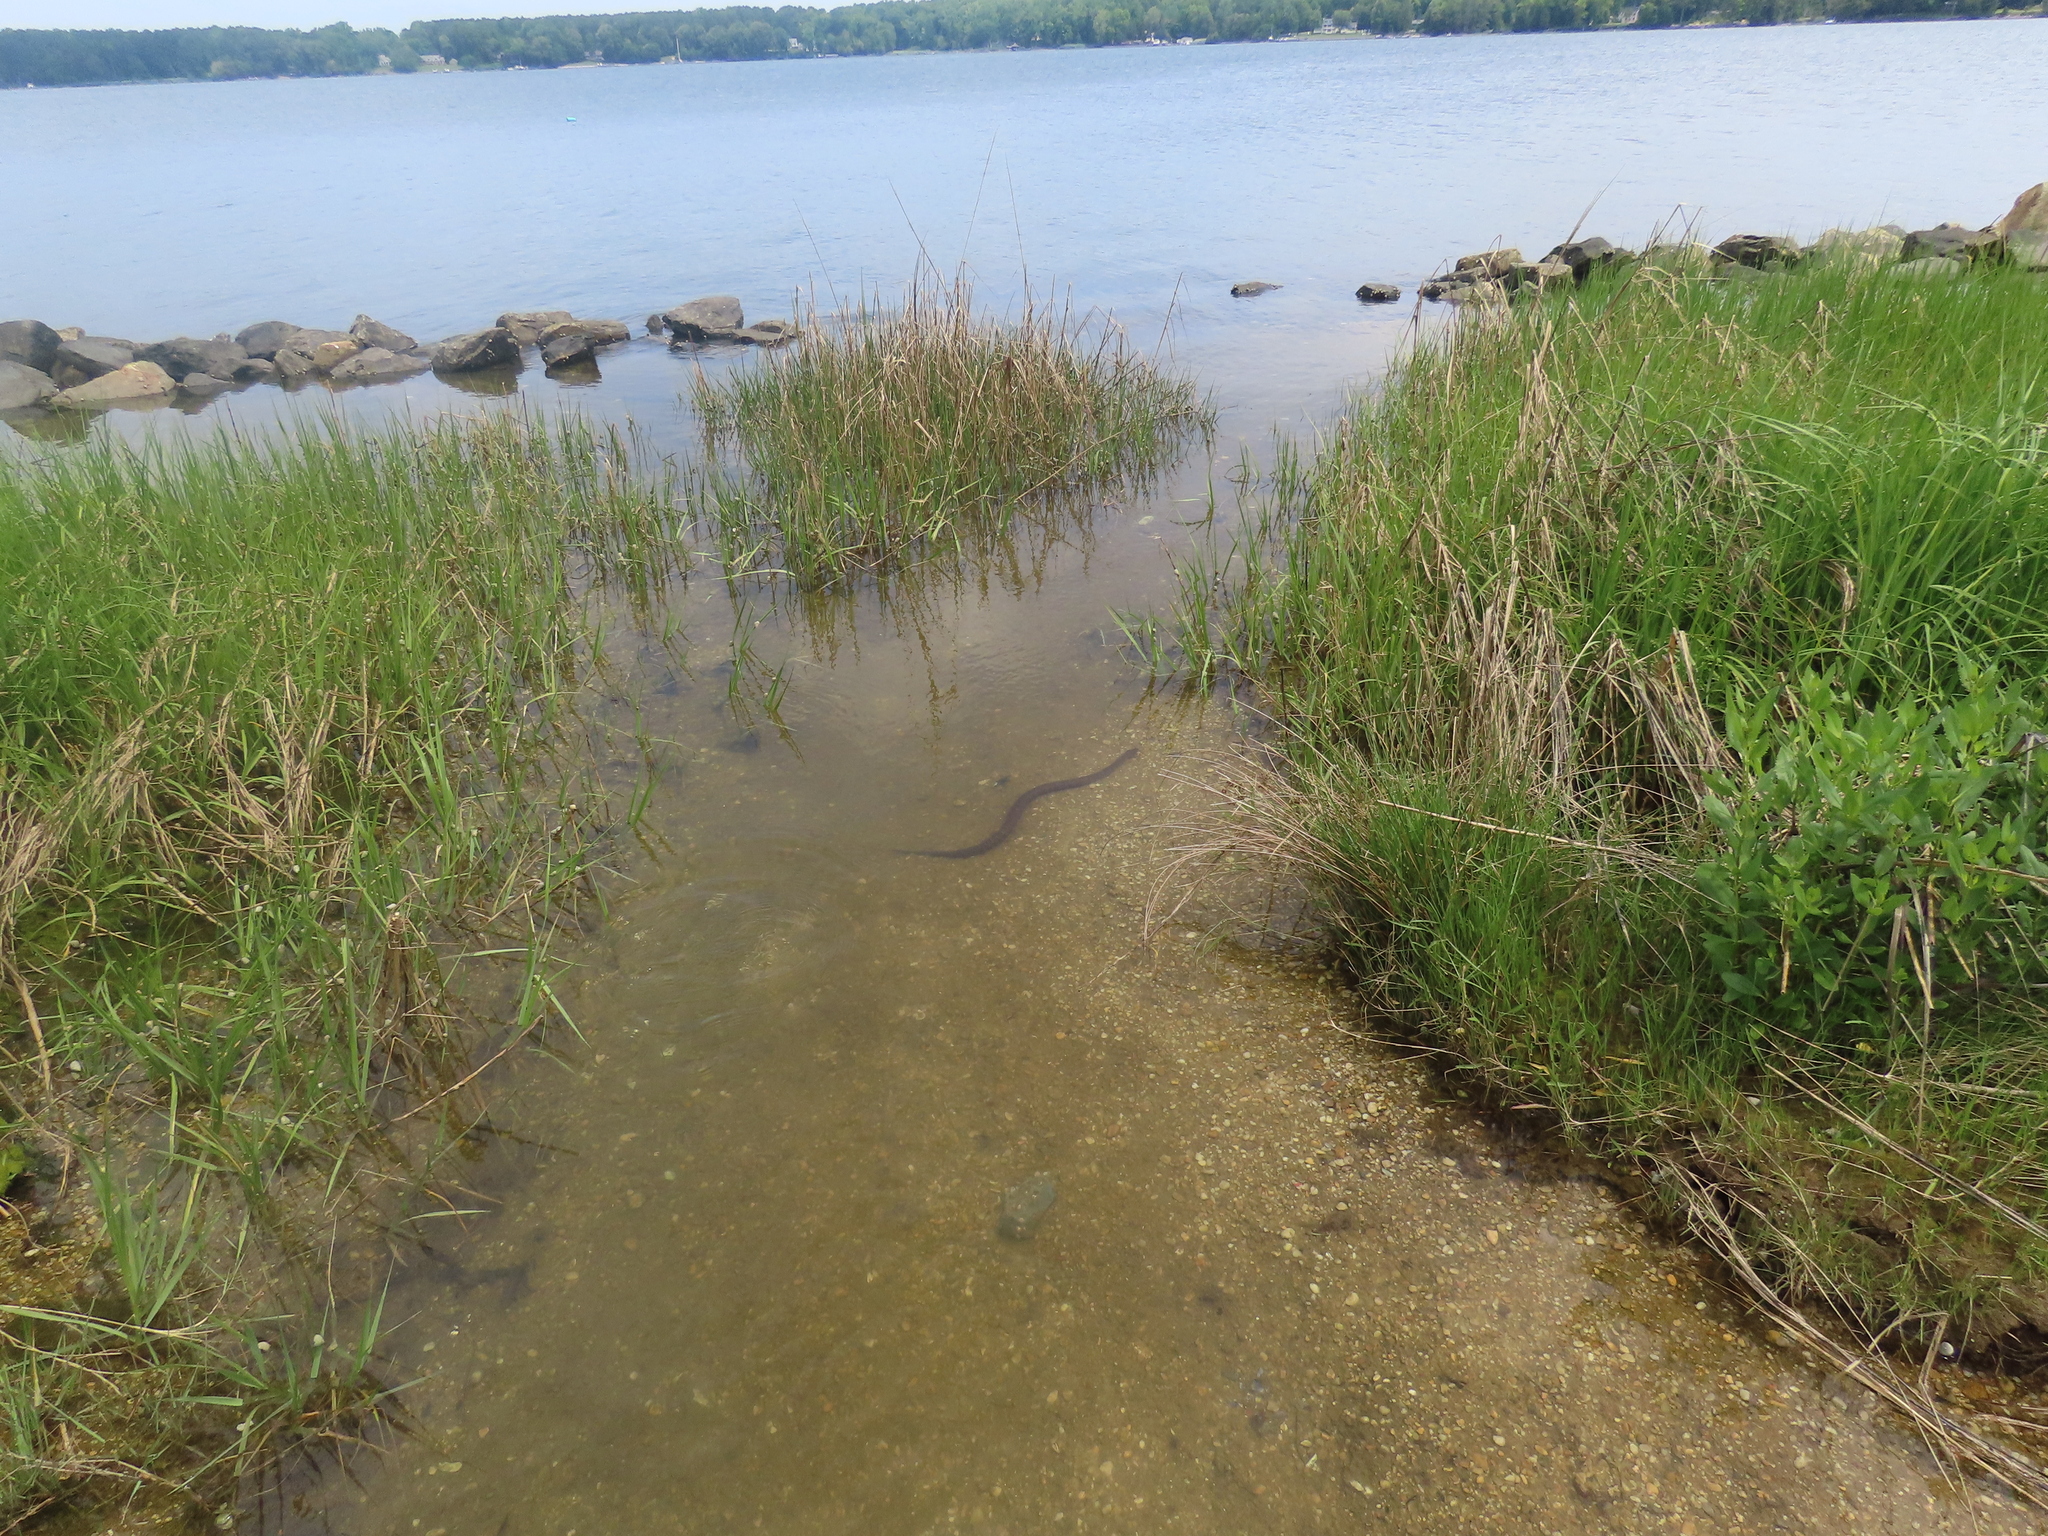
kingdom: Animalia
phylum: Chordata
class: Squamata
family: Colubridae
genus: Nerodia
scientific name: Nerodia sipedon
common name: Northern water snake
